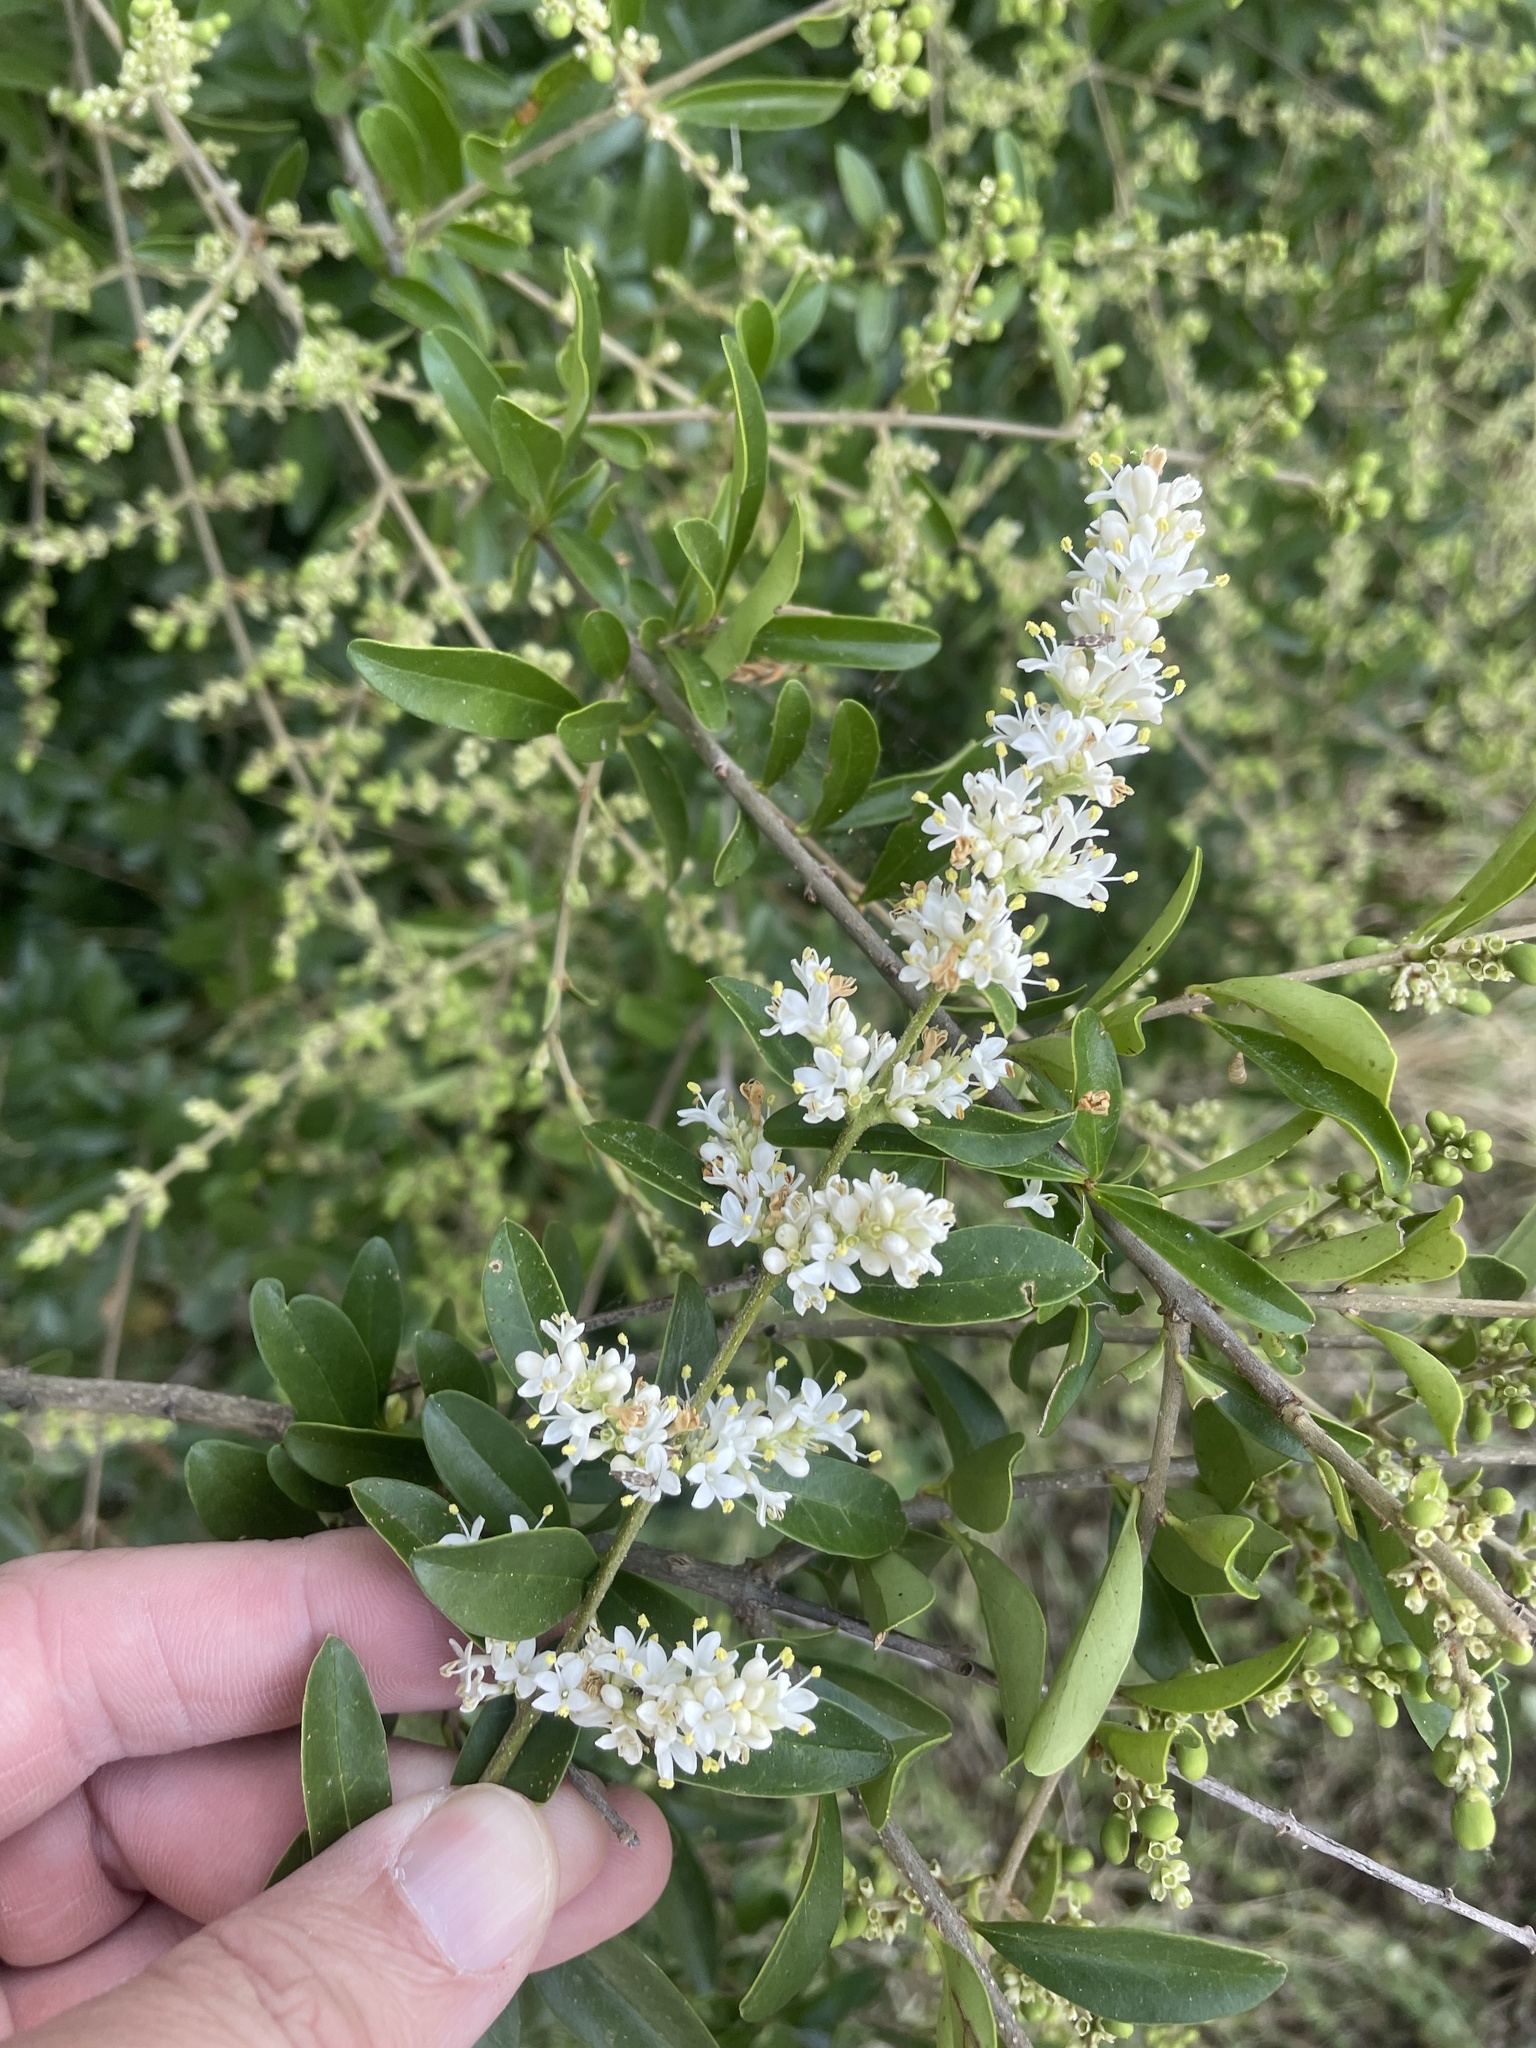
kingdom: Plantae
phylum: Tracheophyta
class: Magnoliopsida
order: Lamiales
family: Oleaceae
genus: Ligustrum
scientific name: Ligustrum quihoui
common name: Waxyleaf privet
